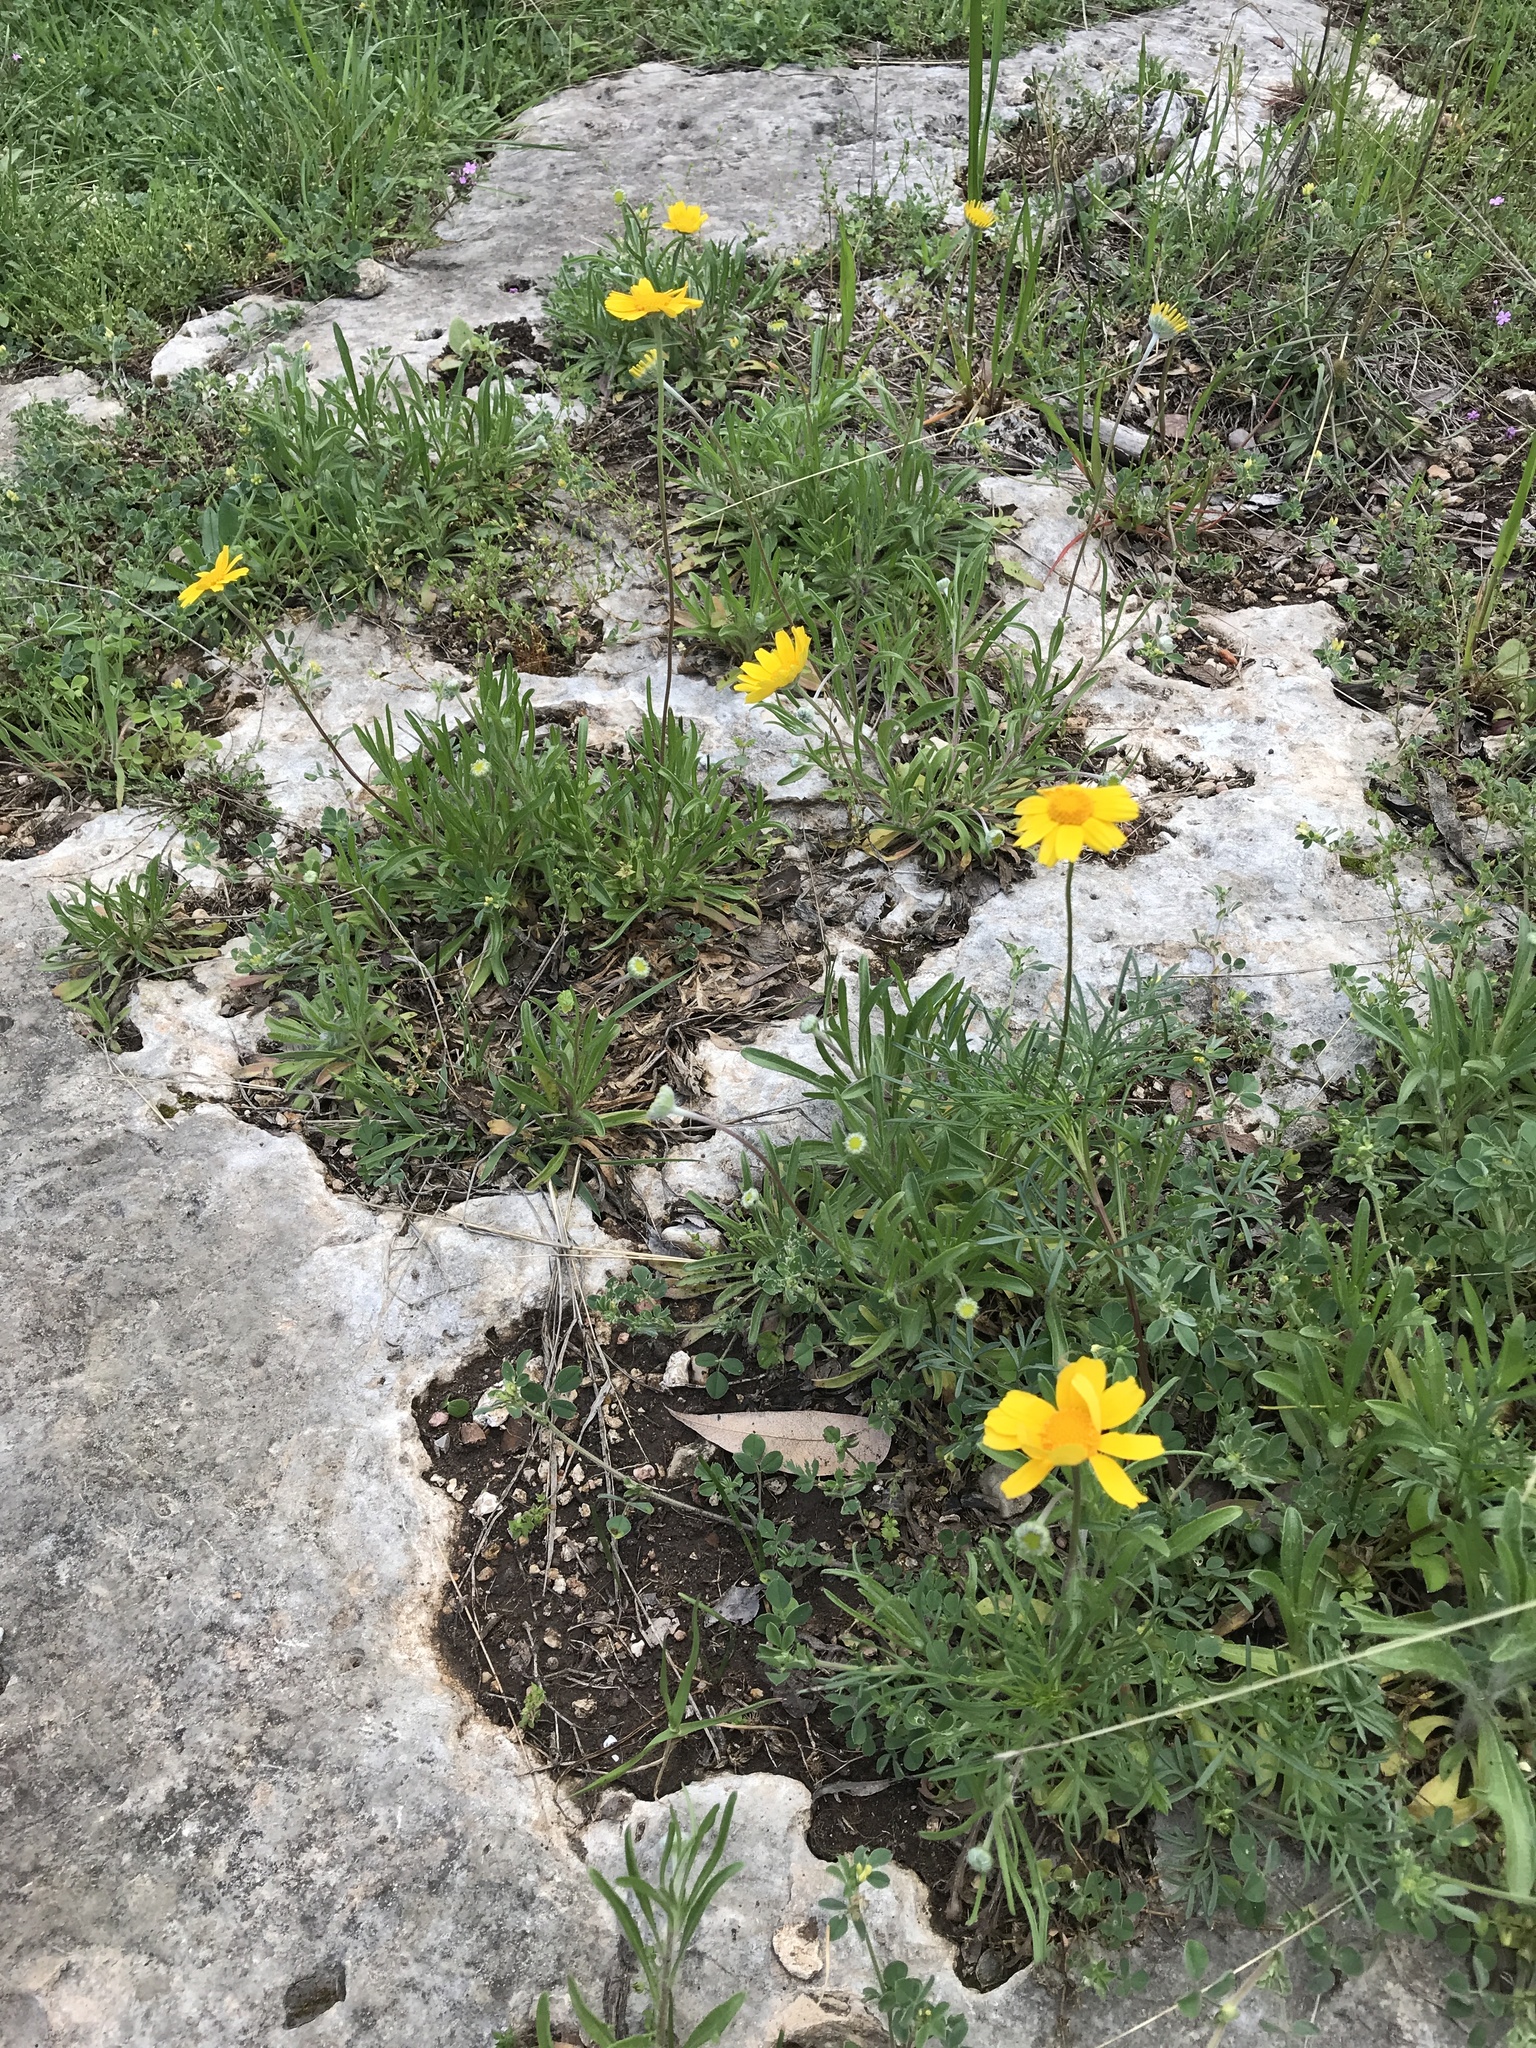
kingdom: Plantae
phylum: Tracheophyta
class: Magnoliopsida
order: Asterales
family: Asteraceae
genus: Tetraneuris
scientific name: Tetraneuris scaposa
